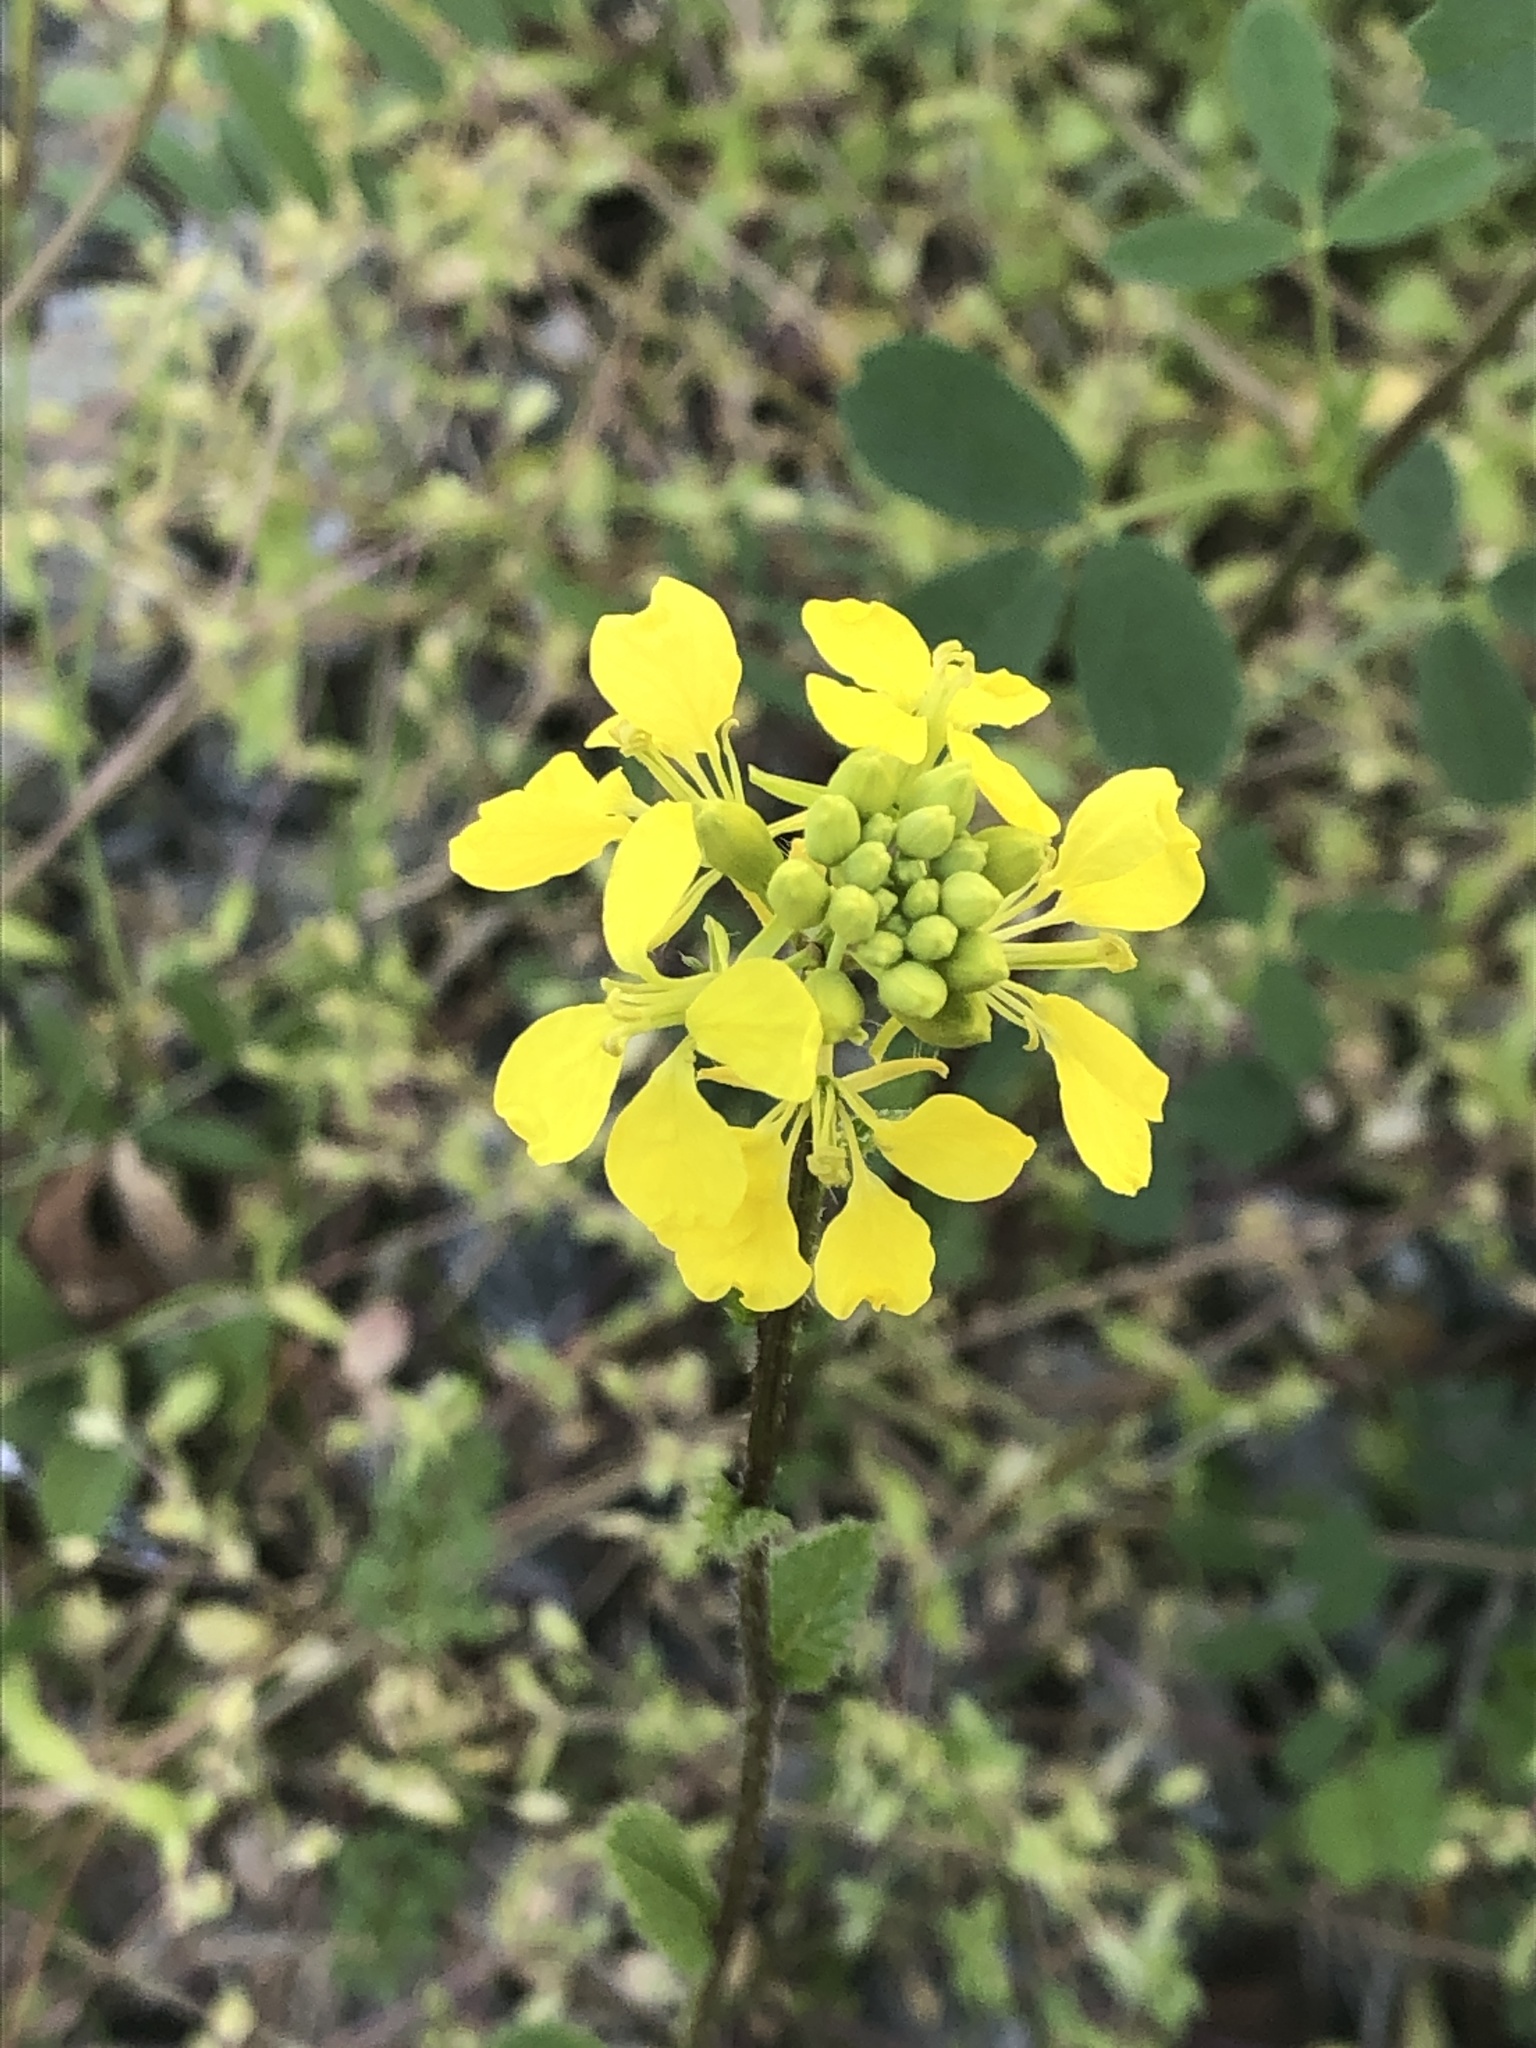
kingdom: Plantae
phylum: Tracheophyta
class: Magnoliopsida
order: Brassicales
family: Brassicaceae
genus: Sinapis
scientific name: Sinapis arvensis
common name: Charlock
